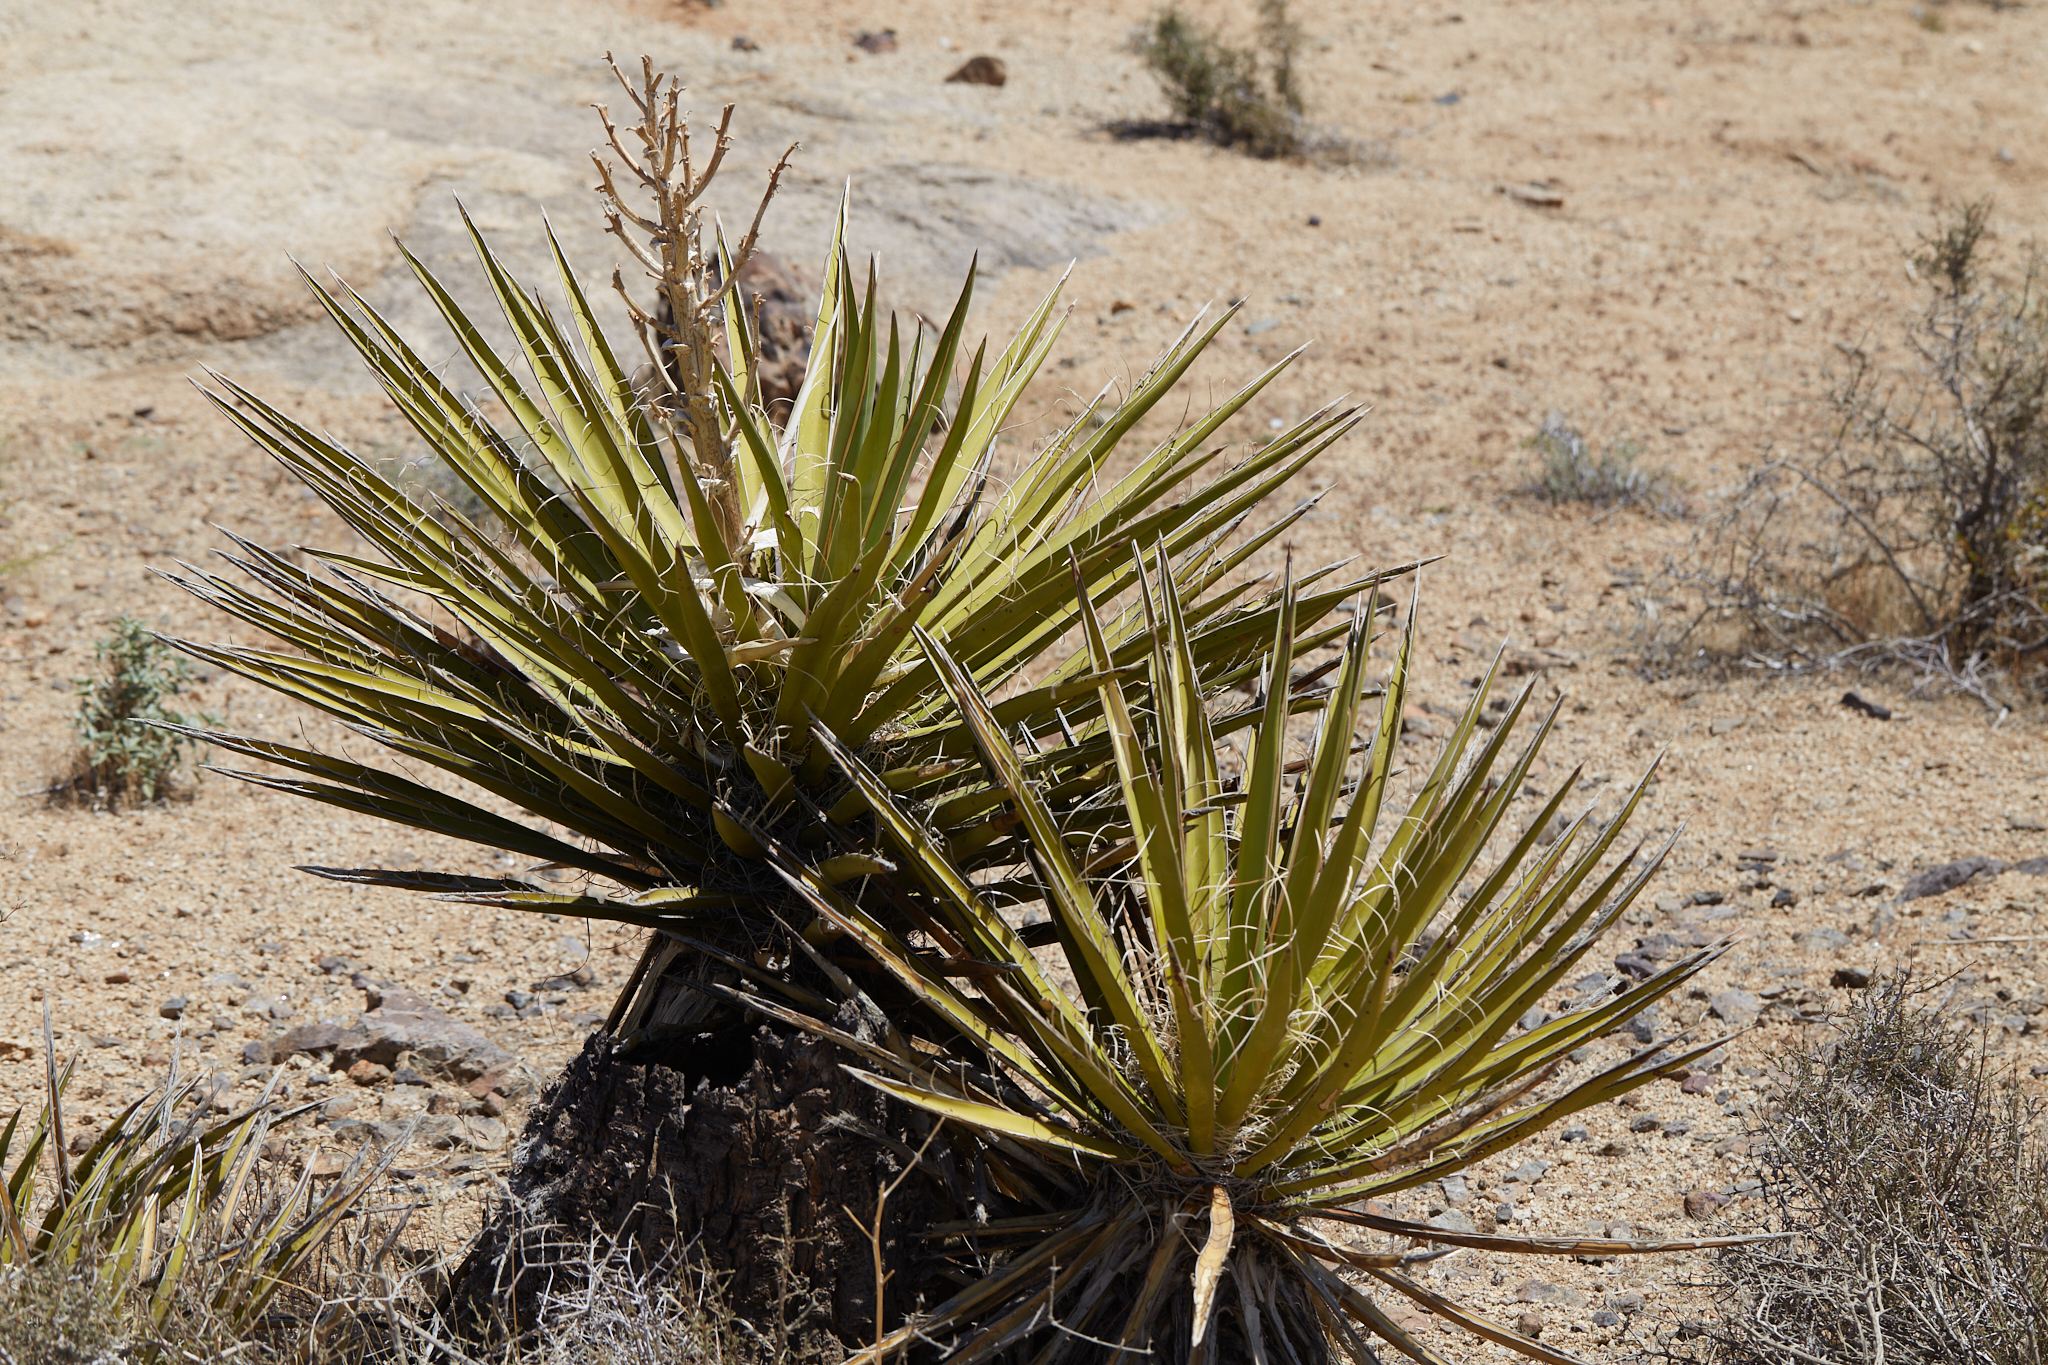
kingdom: Plantae
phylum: Tracheophyta
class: Liliopsida
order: Asparagales
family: Asparagaceae
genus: Yucca
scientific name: Yucca schidigera
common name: Mojave yucca
